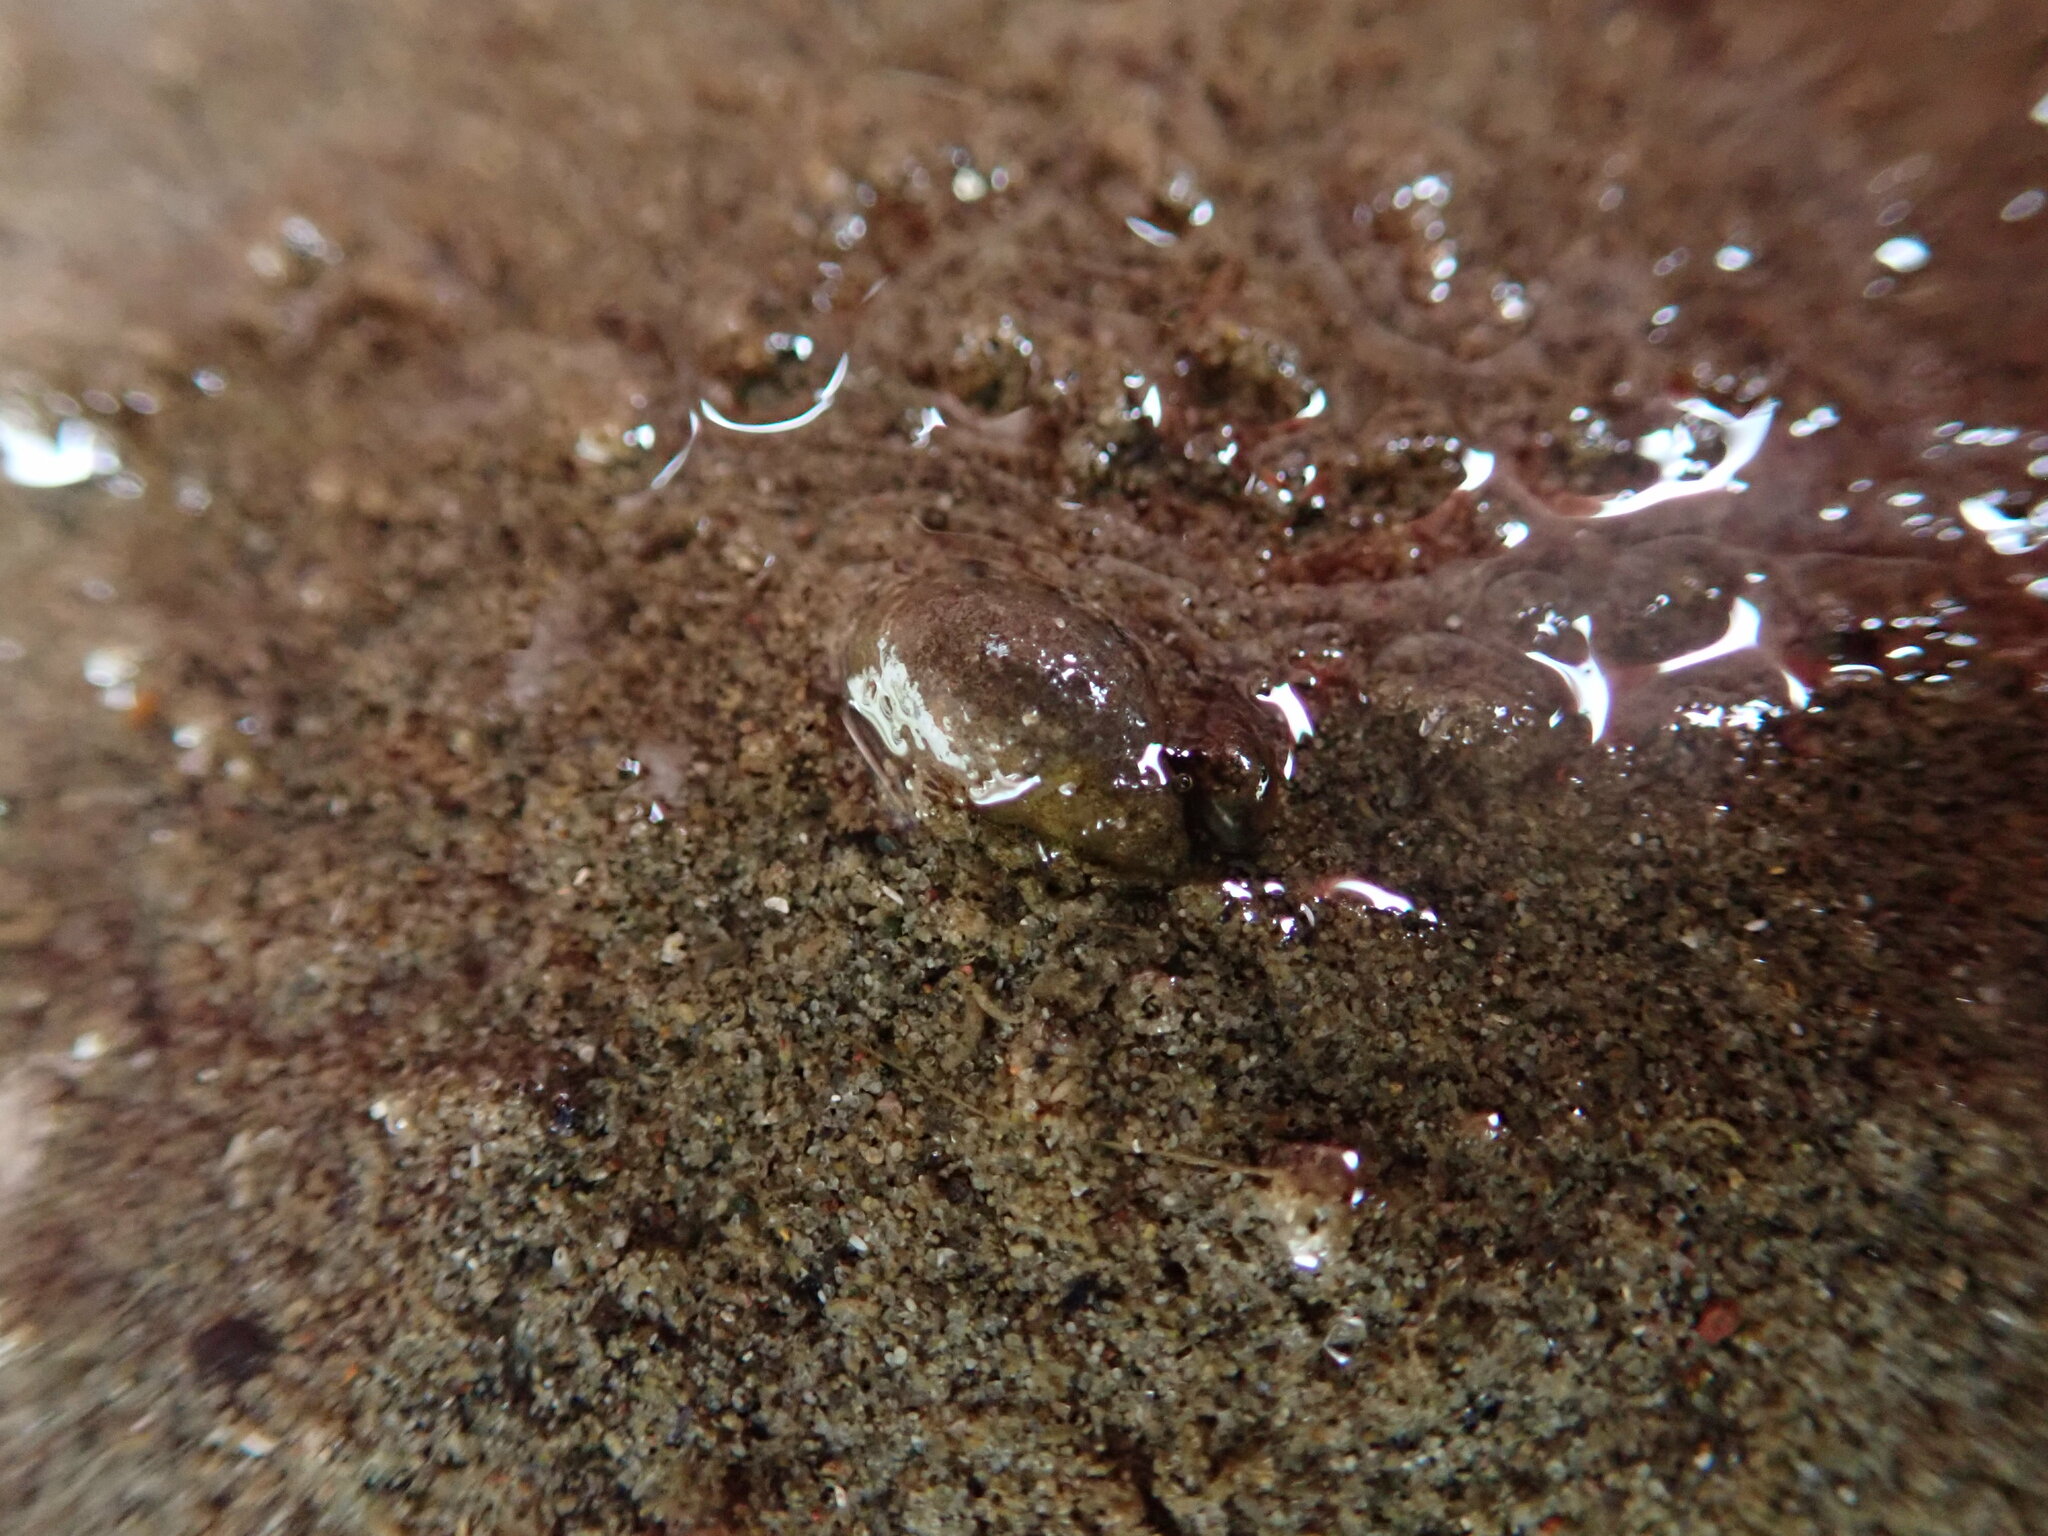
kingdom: Animalia
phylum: Mollusca
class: Gastropoda
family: Physidae
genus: Physella
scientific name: Physella acuta
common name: European physa
